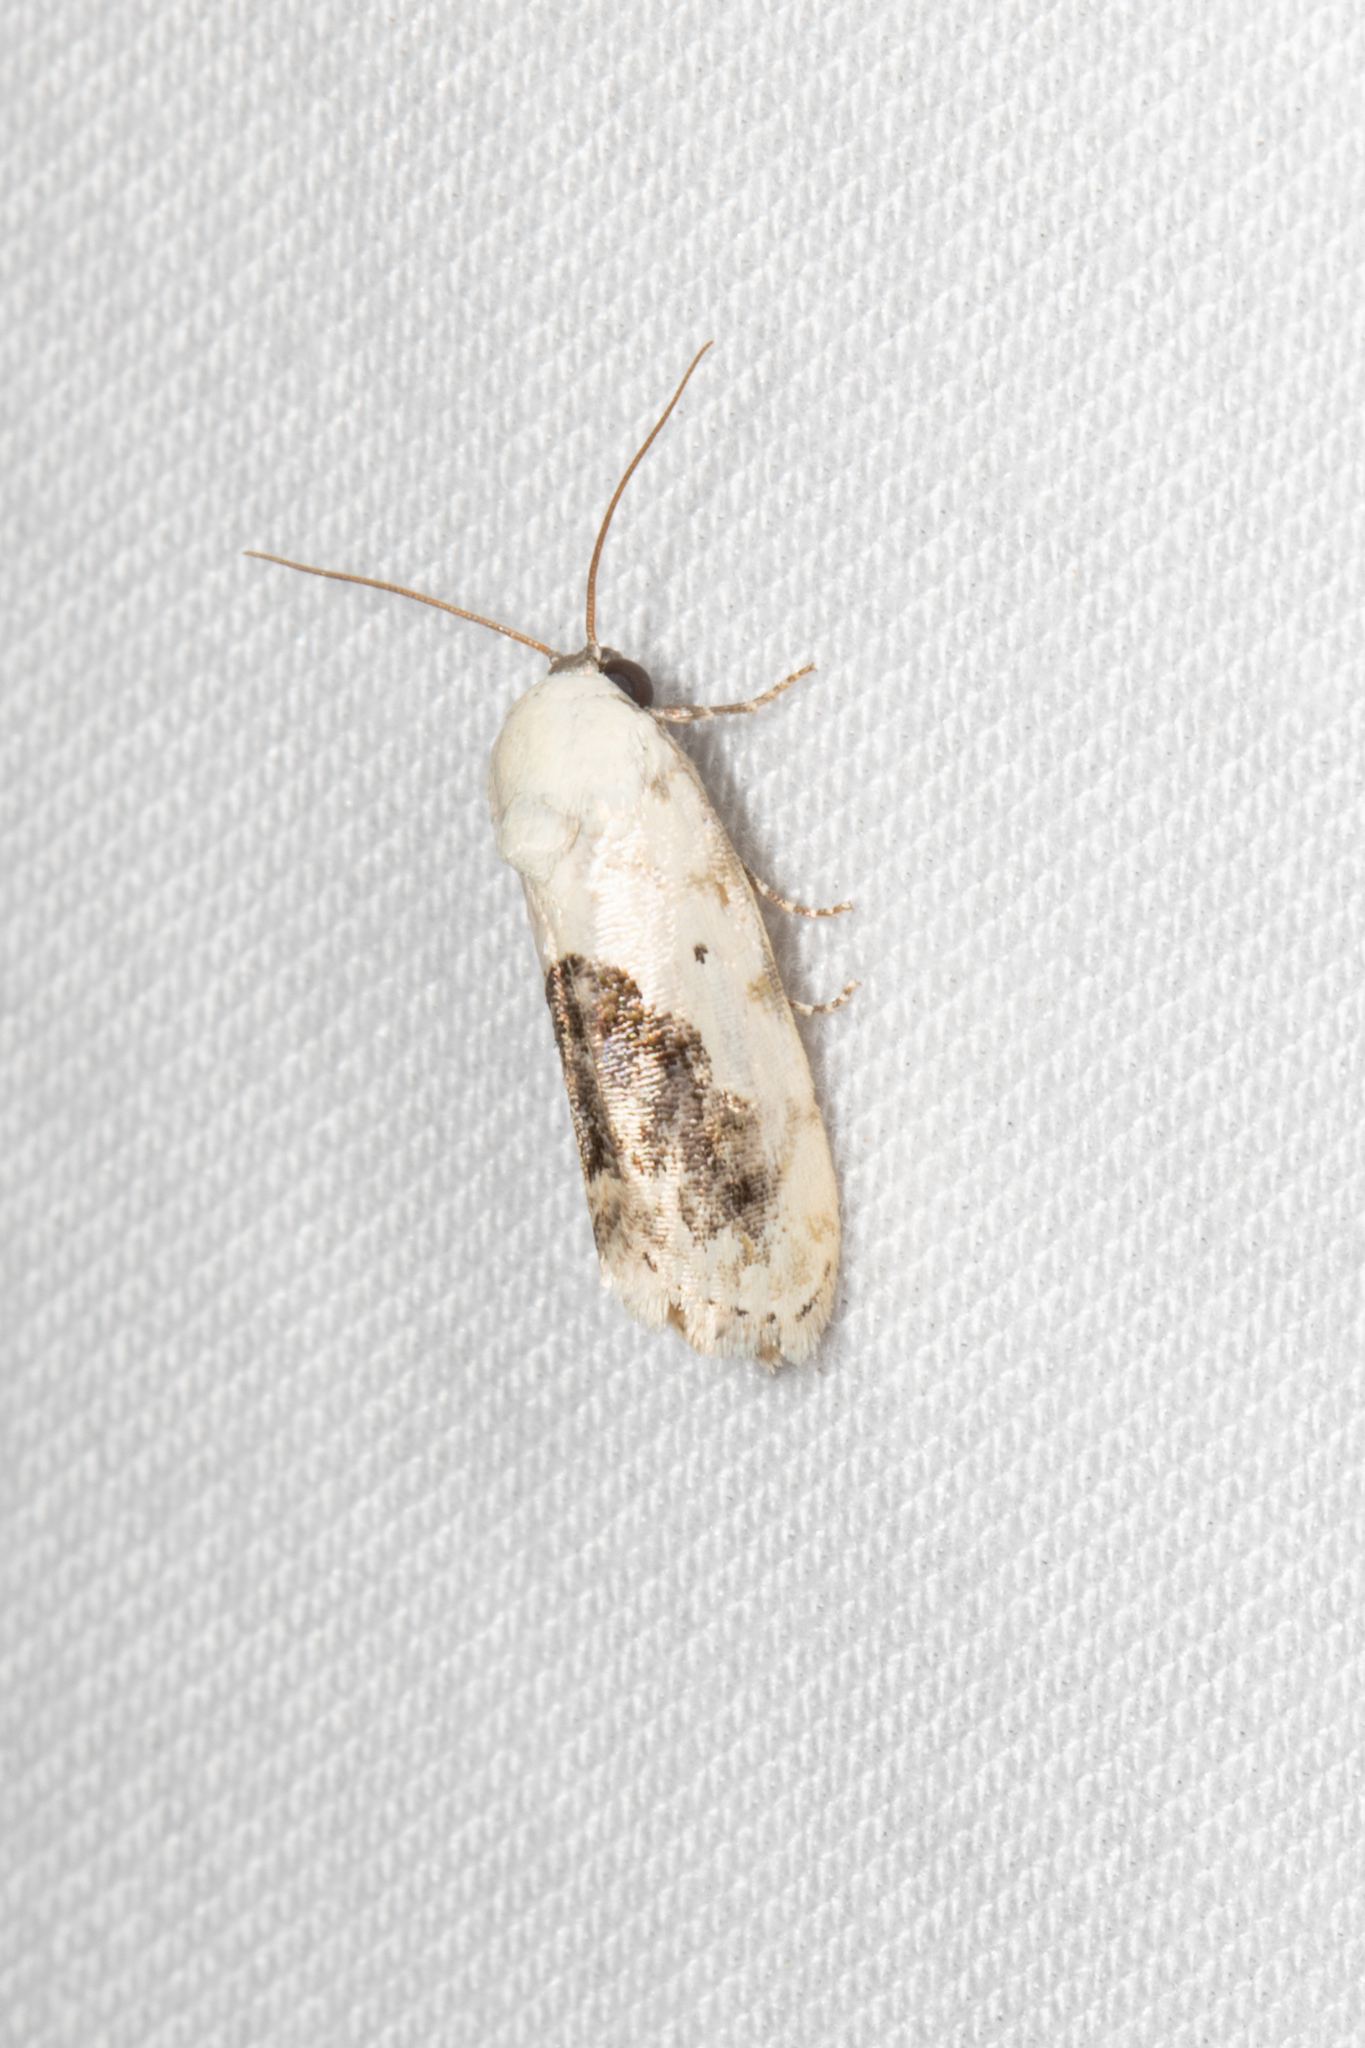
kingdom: Animalia
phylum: Arthropoda
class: Insecta
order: Lepidoptera
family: Noctuidae
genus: Acontia
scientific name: Acontia erastrioides
